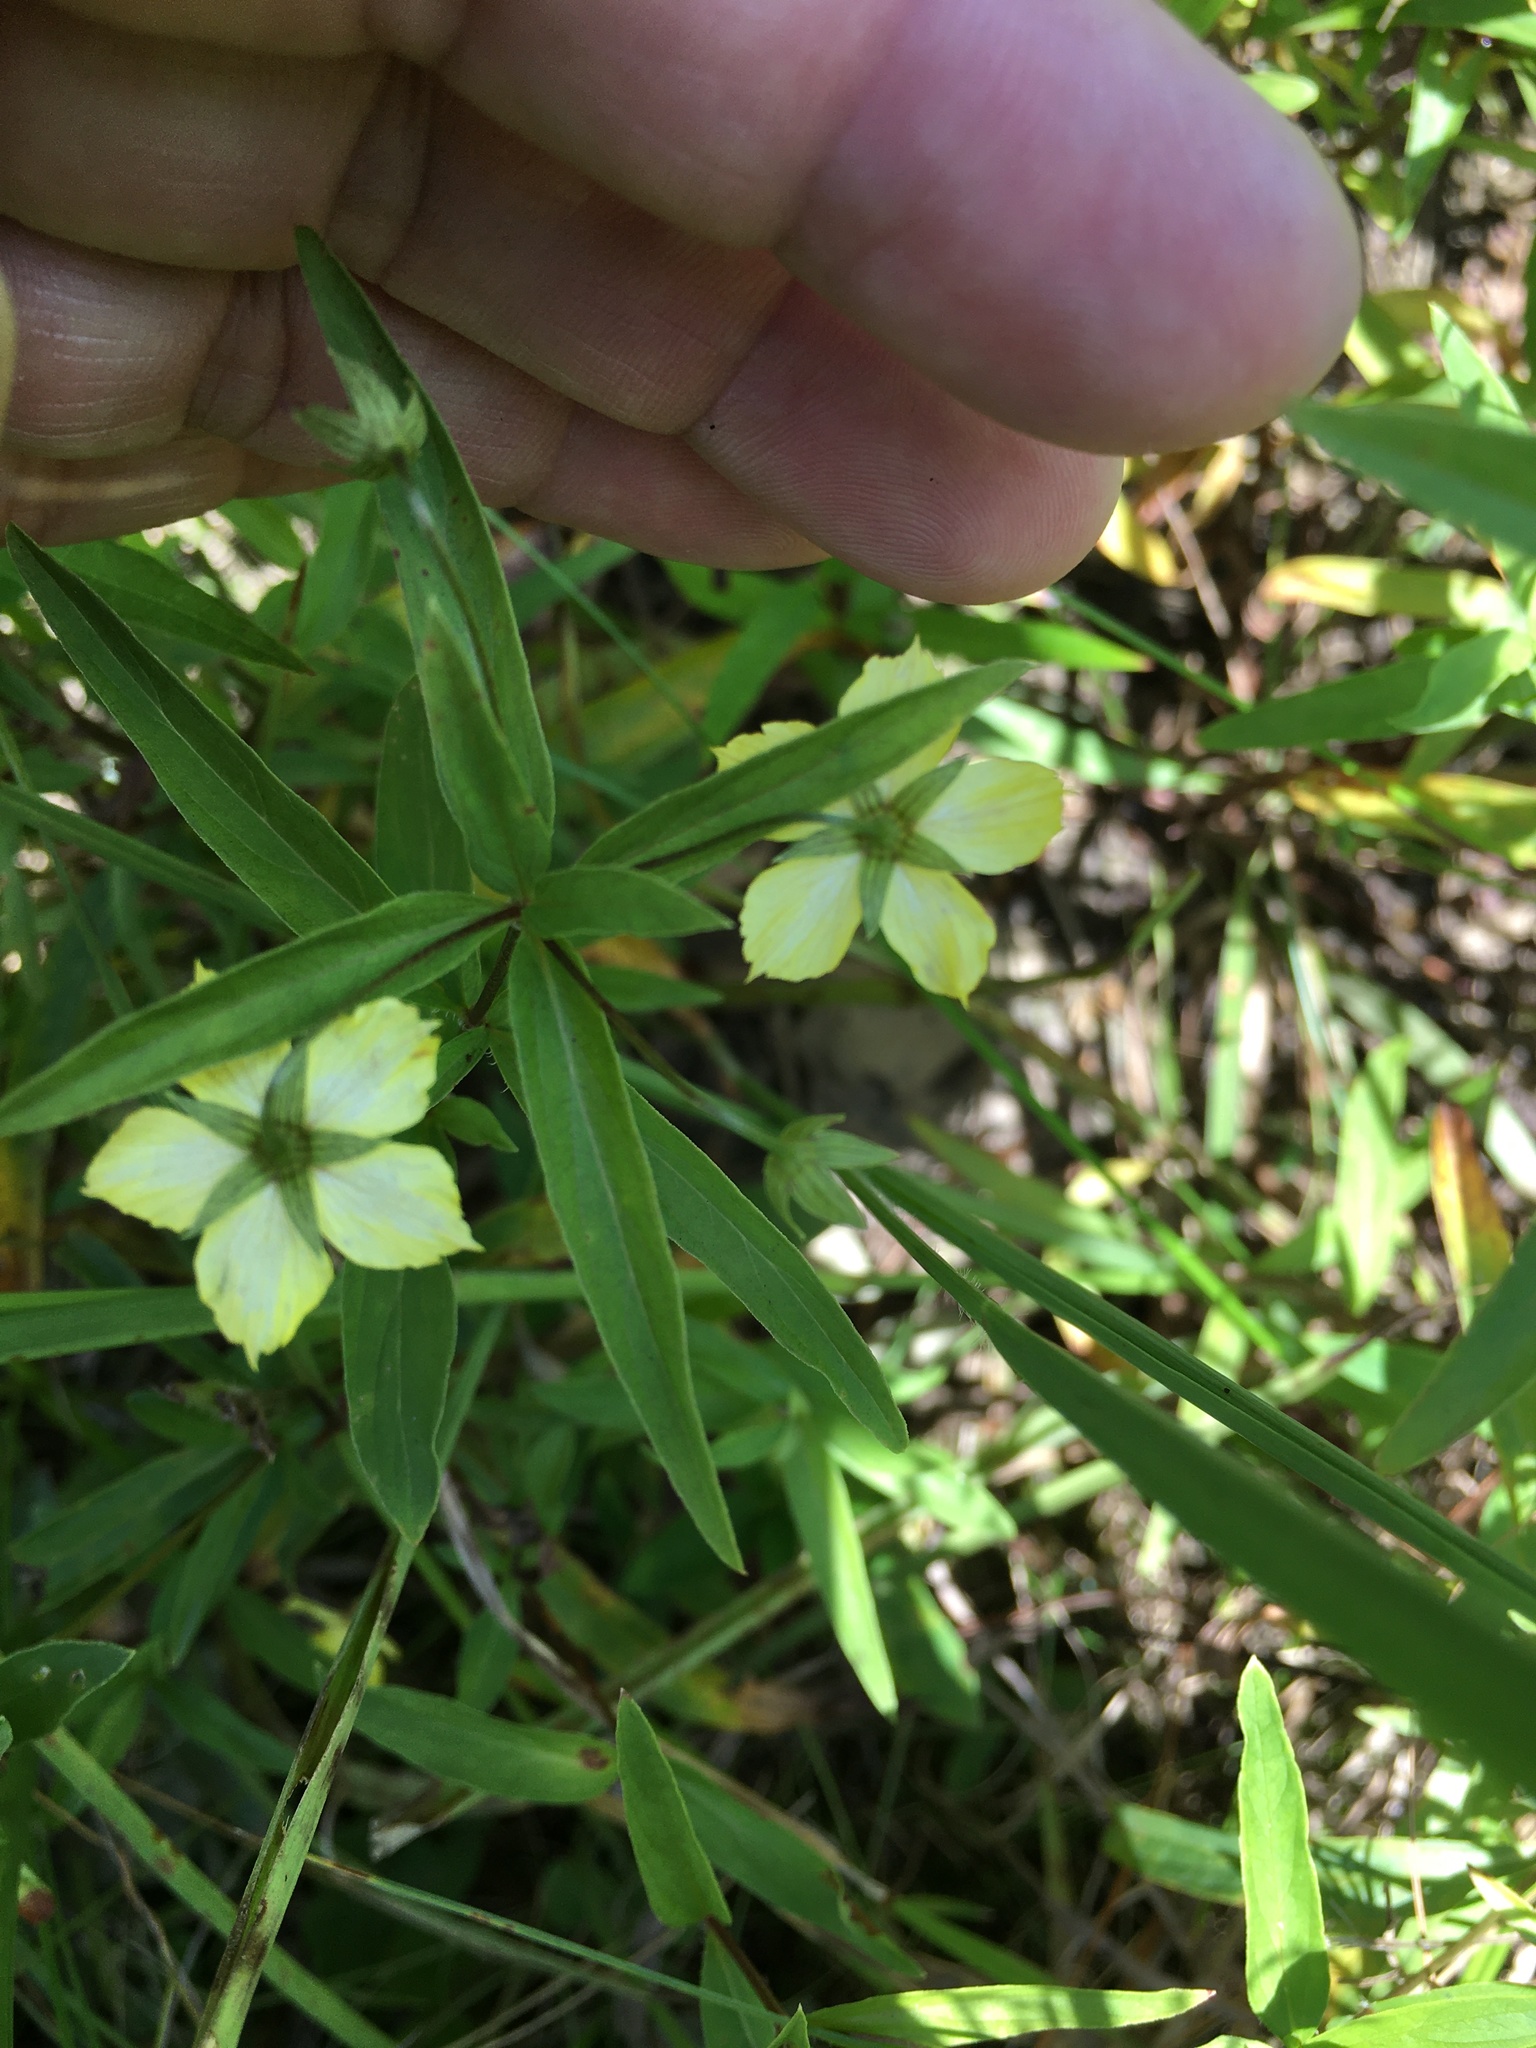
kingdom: Plantae
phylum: Tracheophyta
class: Magnoliopsida
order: Ericales
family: Primulaceae
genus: Lysimachia
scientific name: Lysimachia lanceolata
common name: Lance-leaved loosestrife
